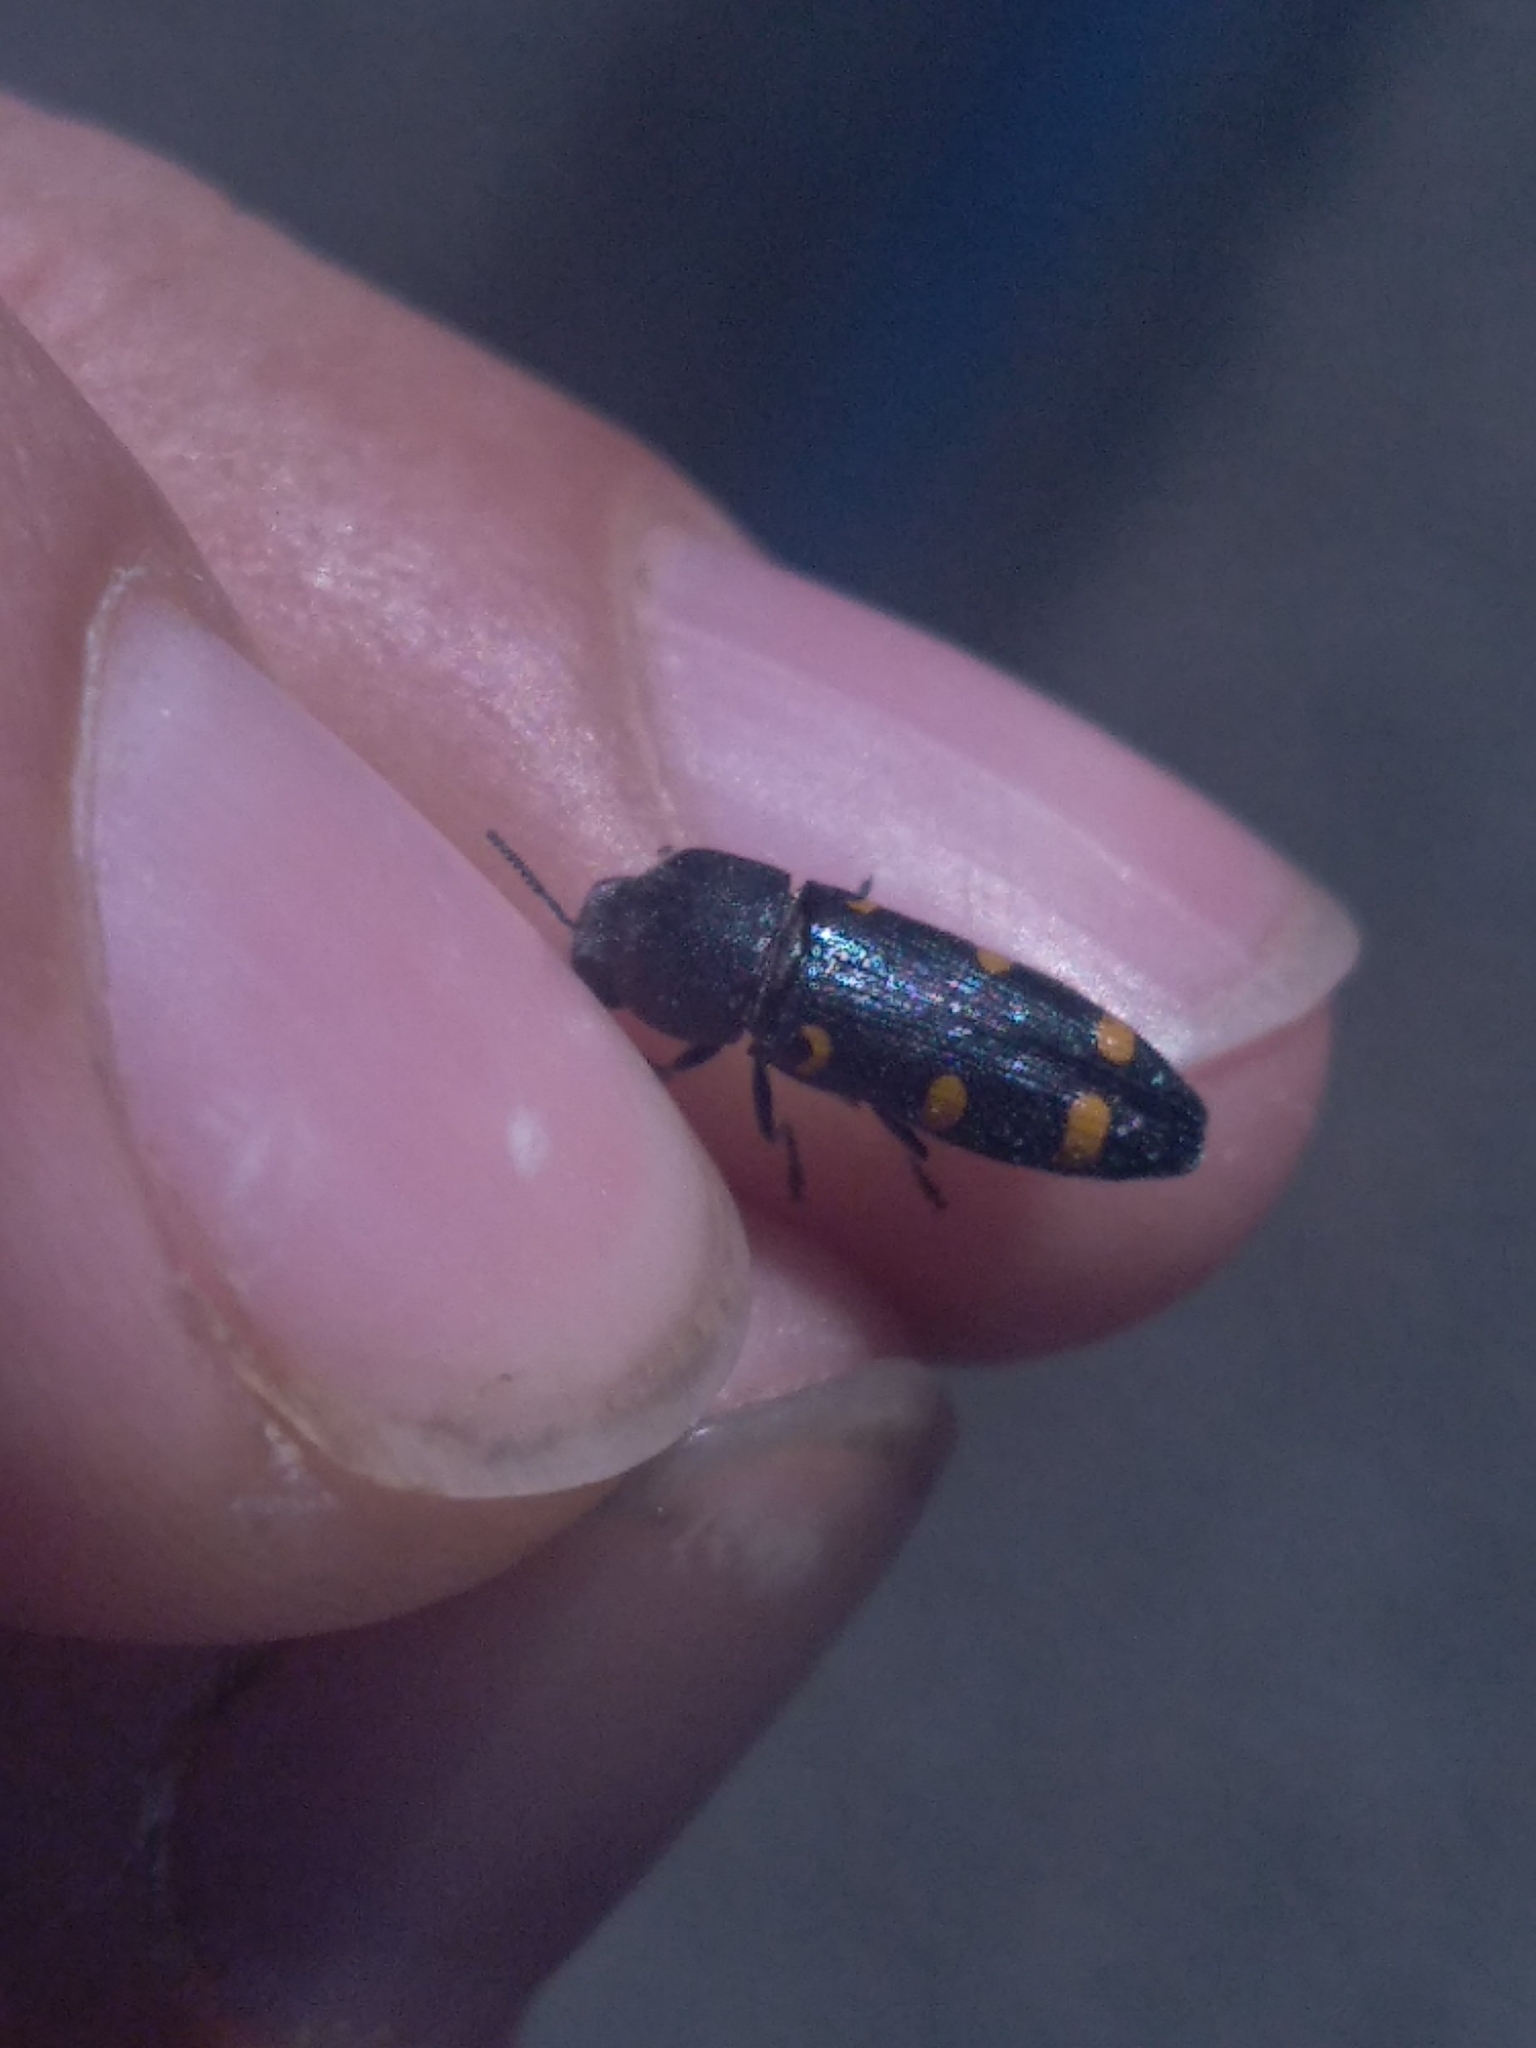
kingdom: Animalia
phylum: Arthropoda
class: Insecta
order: Coleoptera
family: Buprestidae
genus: Ptosima
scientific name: Ptosima undecimmaculata
